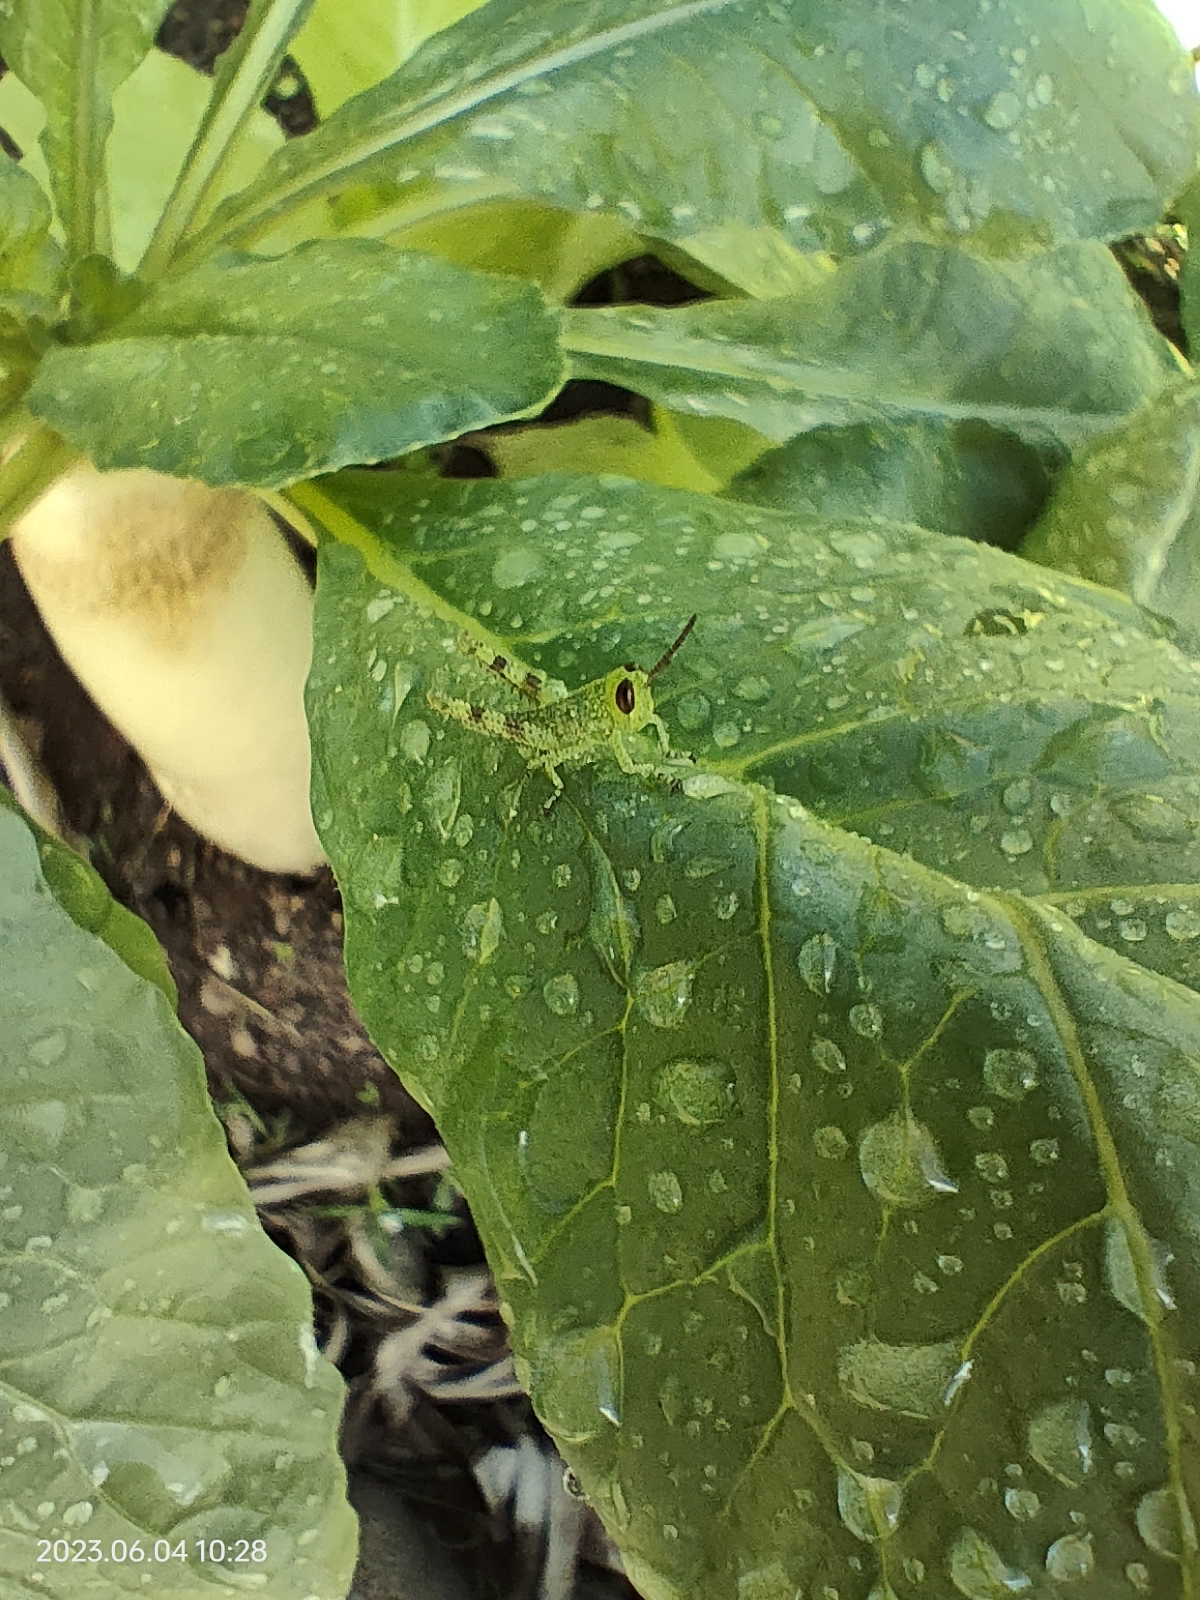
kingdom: Animalia
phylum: Arthropoda
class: Insecta
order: Orthoptera
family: Acrididae
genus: Valanga
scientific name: Valanga irregularis
